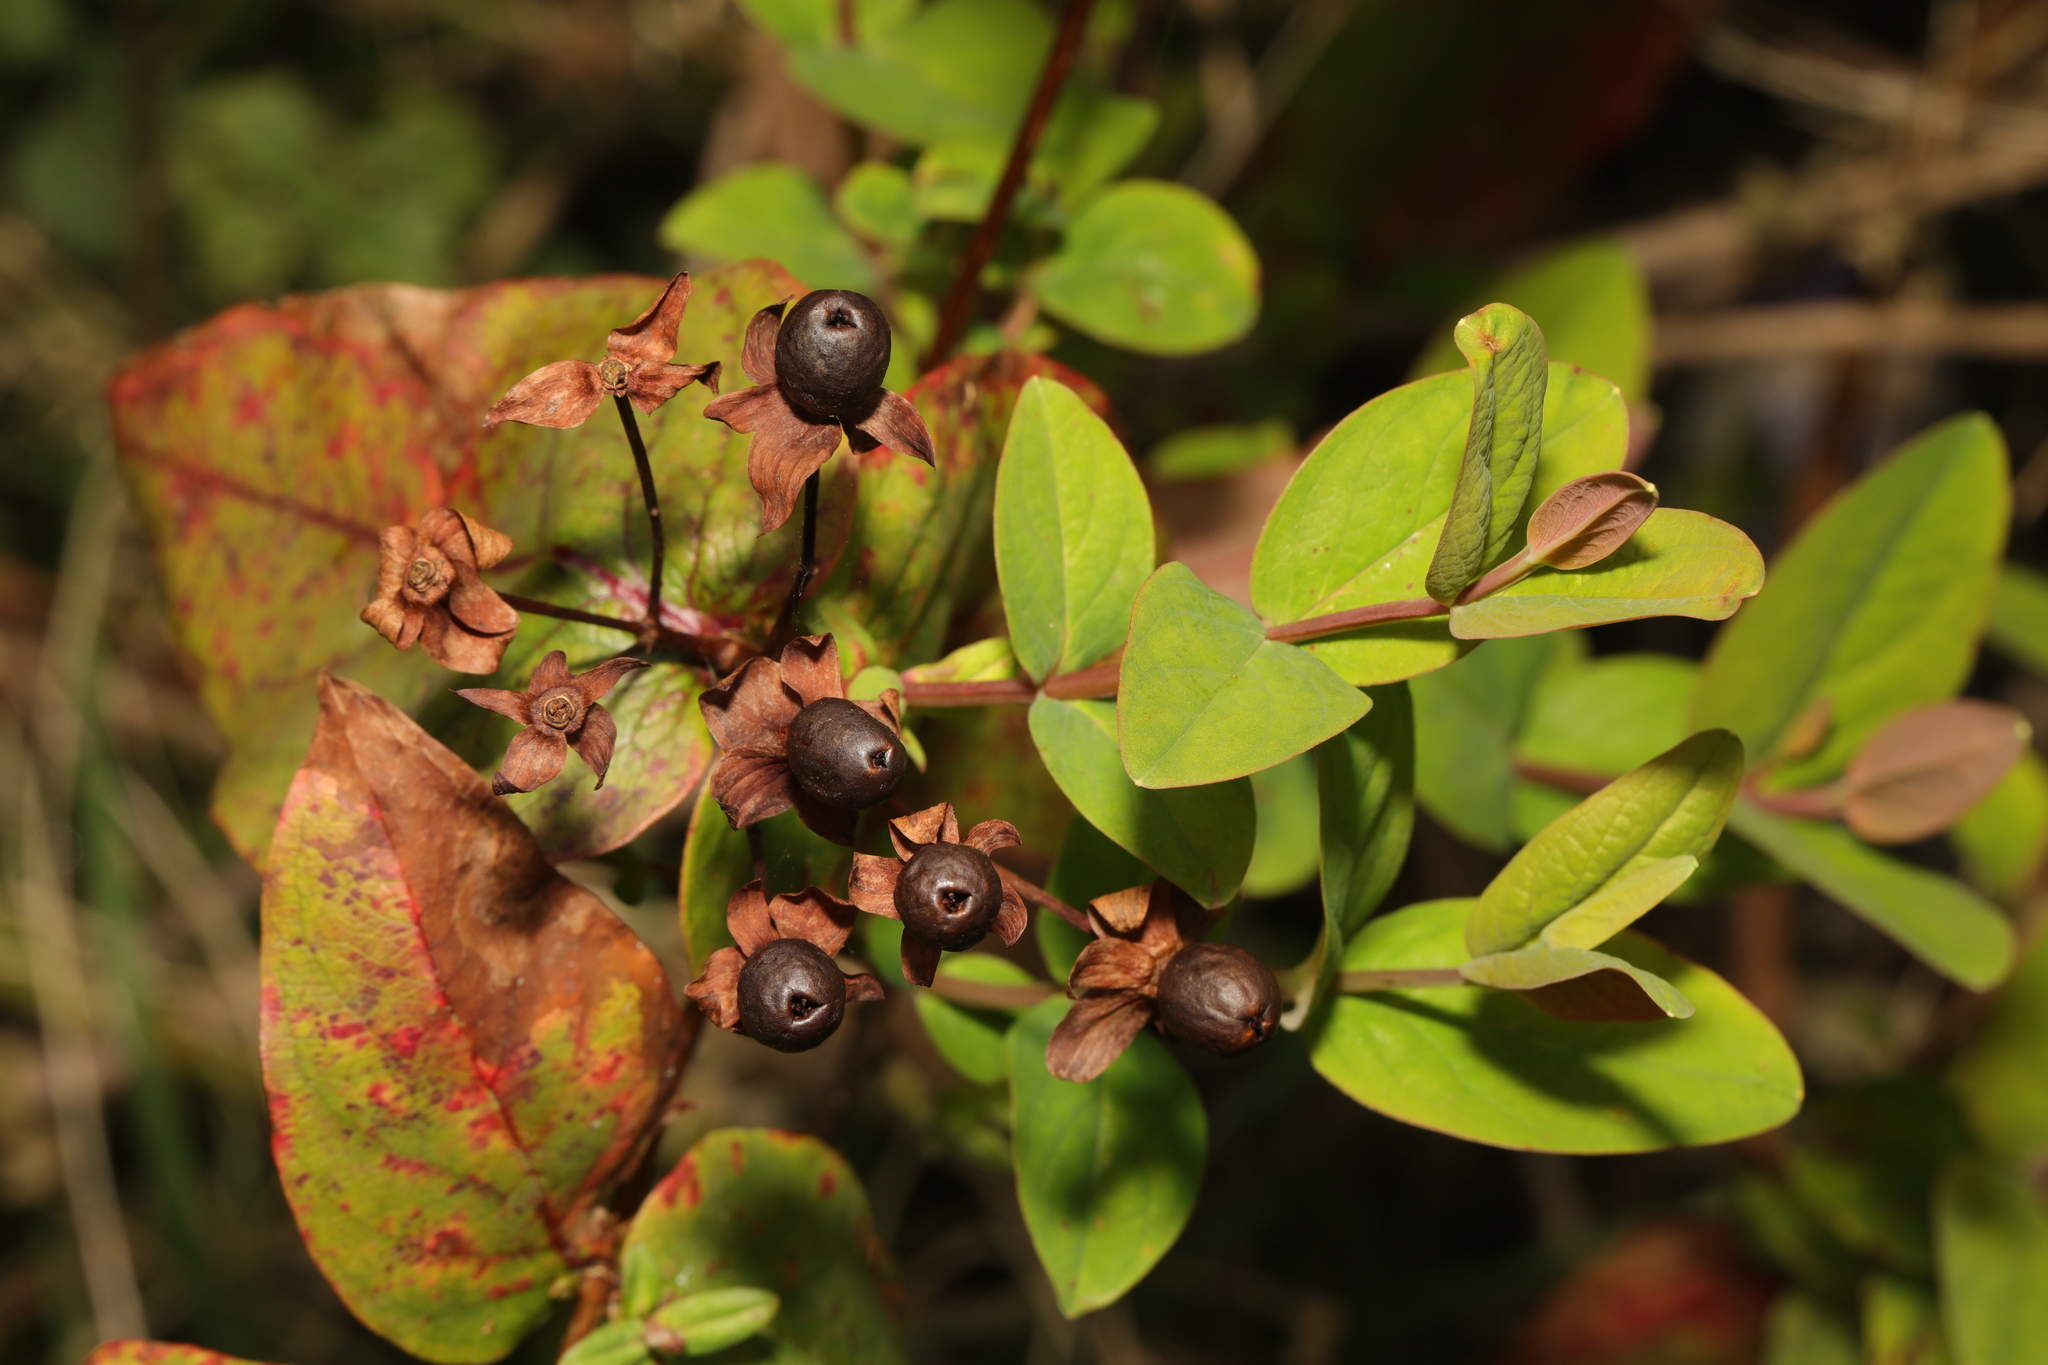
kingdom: Plantae
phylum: Tracheophyta
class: Magnoliopsida
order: Malpighiales
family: Hypericaceae
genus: Hypericum
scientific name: Hypericum androsaemum
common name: Sweet-amber
